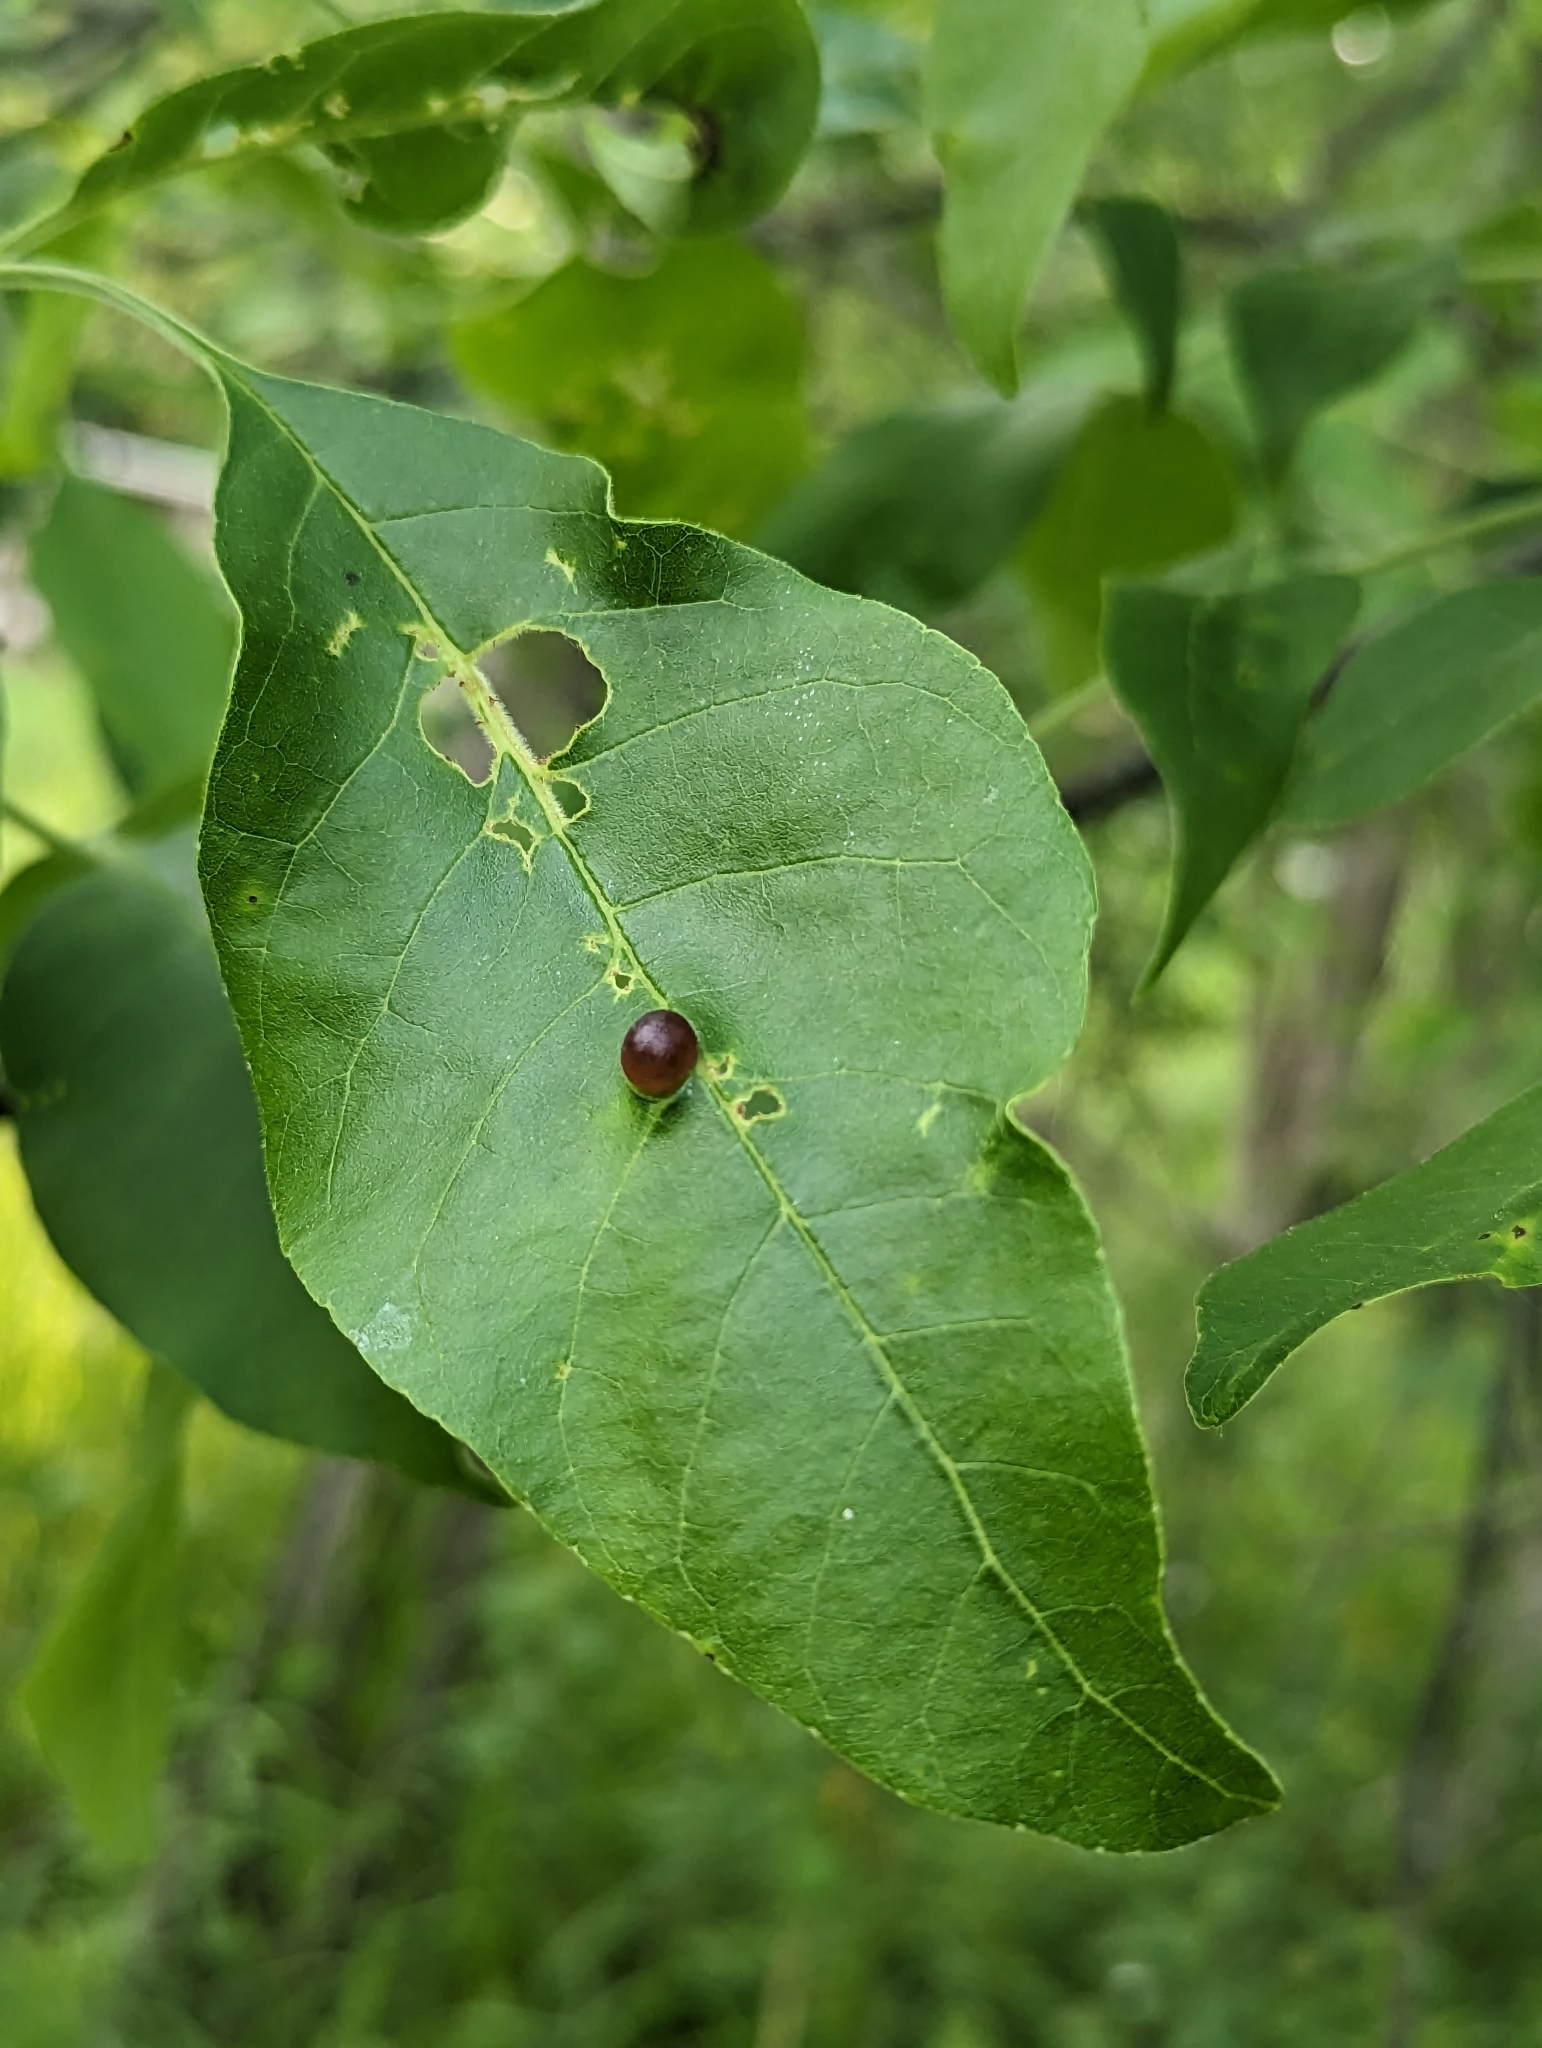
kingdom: Animalia
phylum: Arthropoda
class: Insecta
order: Diptera
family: Cecidomyiidae
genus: Dasineura
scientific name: Dasineura pellex
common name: Ash bullet gall midge
